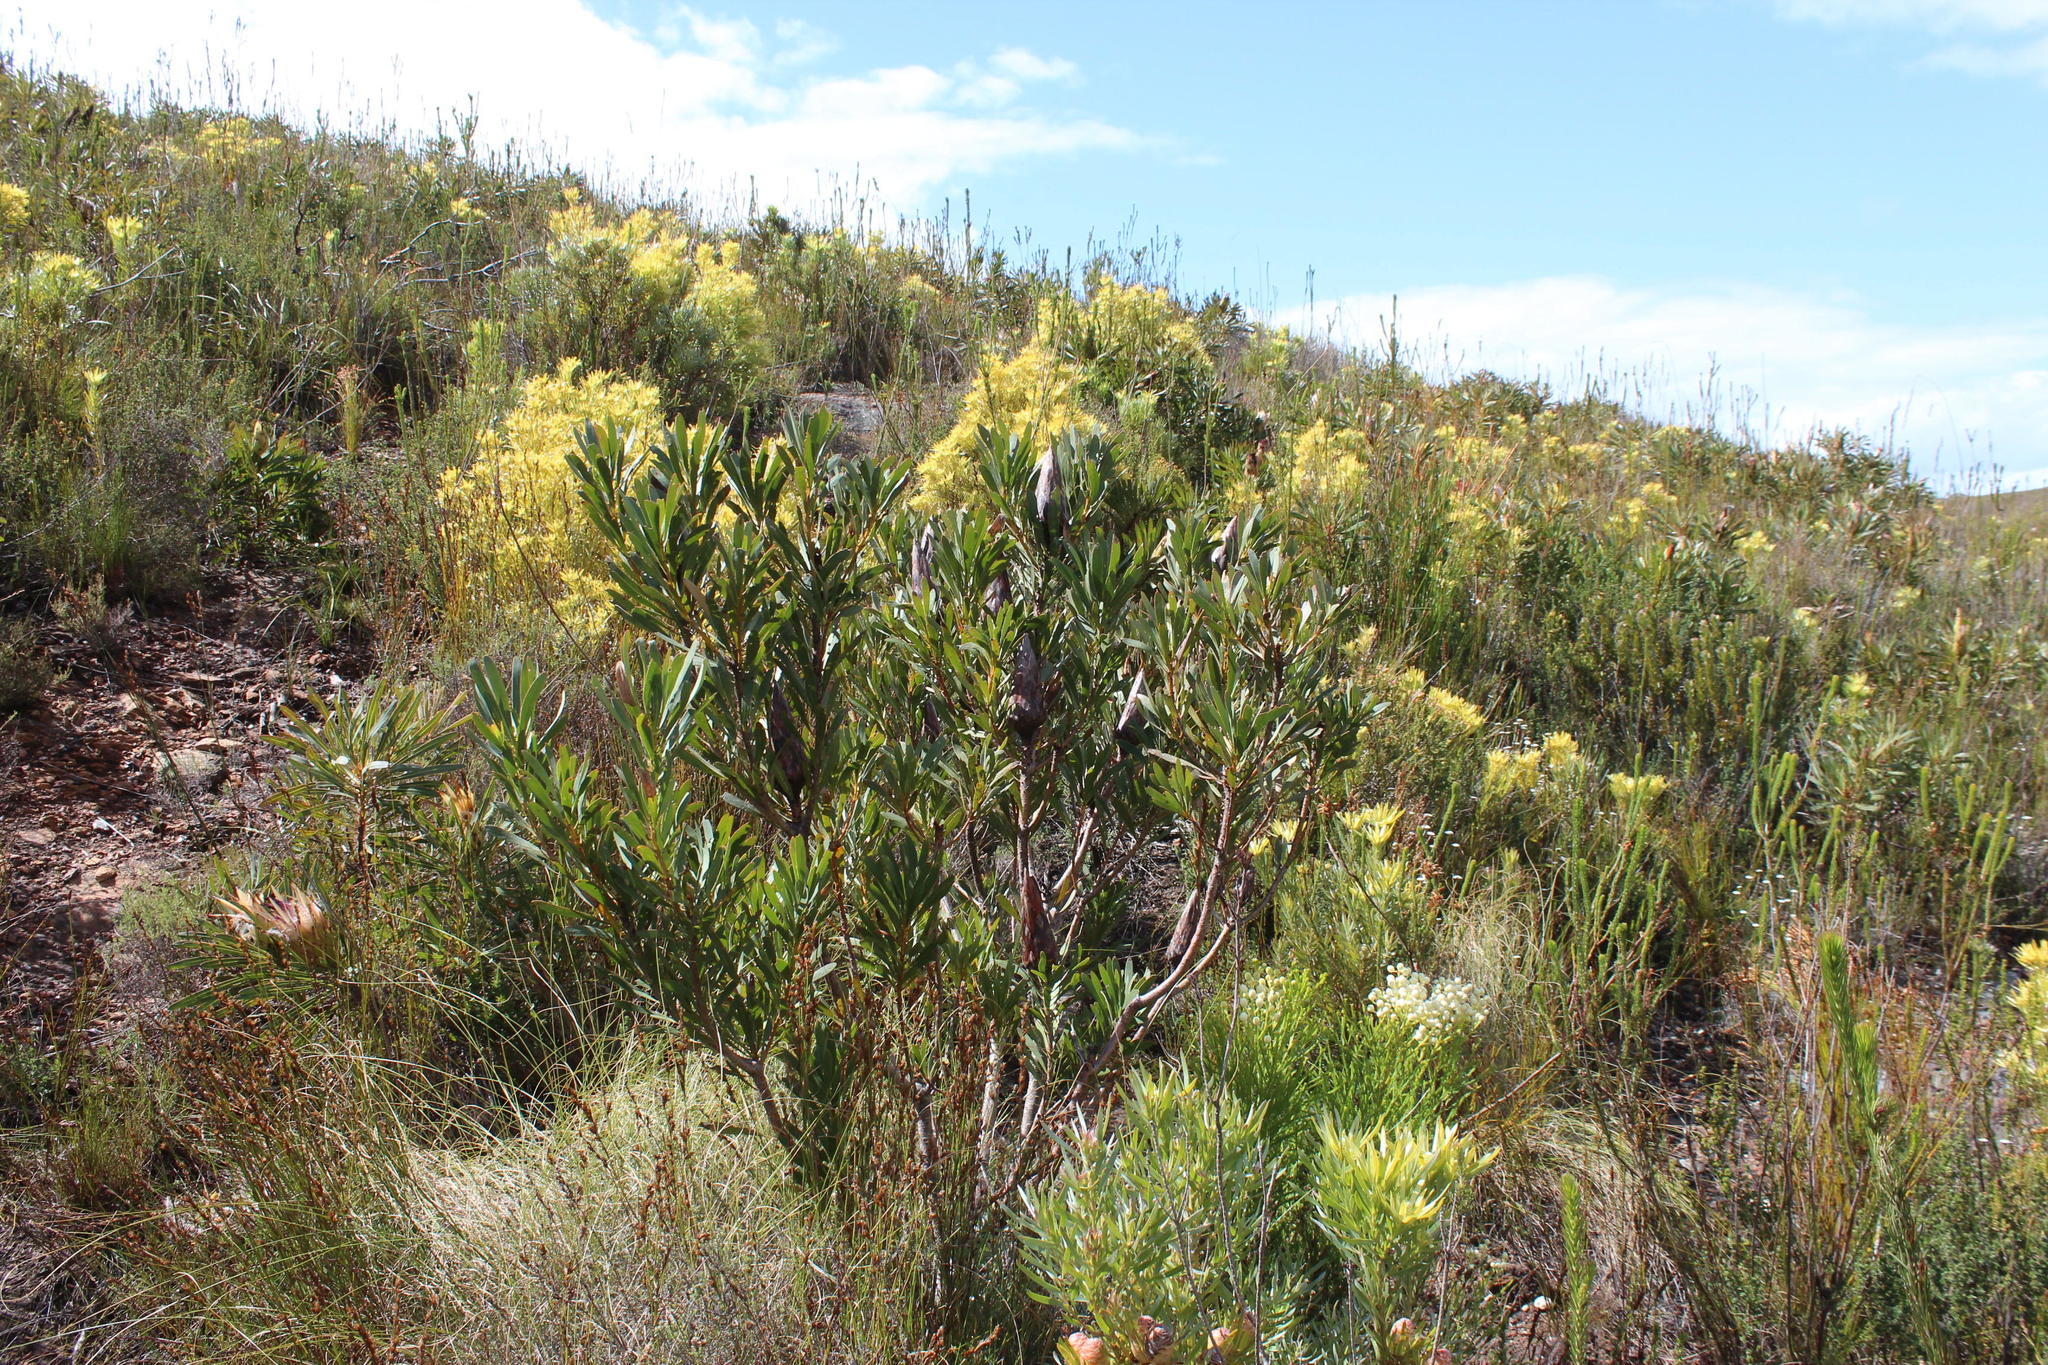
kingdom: Plantae
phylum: Tracheophyta
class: Magnoliopsida
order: Proteales
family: Proteaceae
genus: Protea
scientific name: Protea repens
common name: Sugarbush
